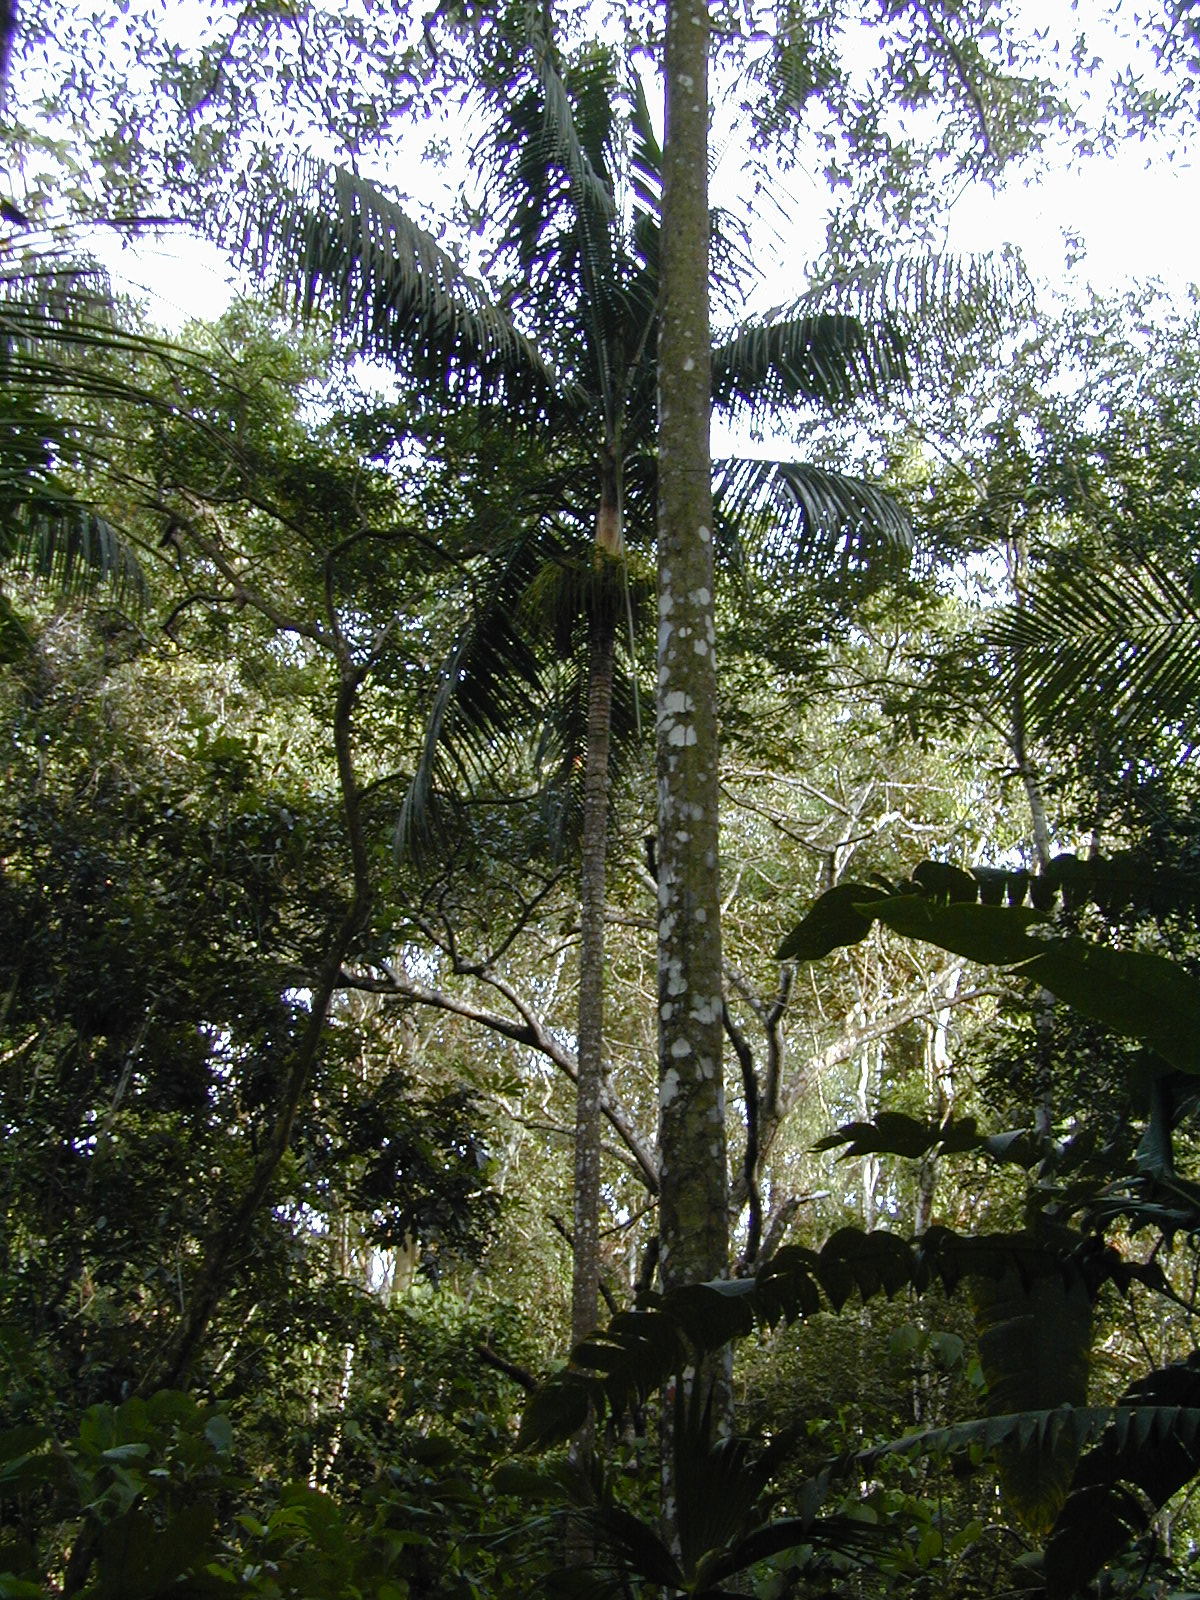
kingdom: Plantae
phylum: Tracheophyta
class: Liliopsida
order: Arecales
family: Arecaceae
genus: Roystonea
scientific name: Roystonea oleracea
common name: South american royal palm
